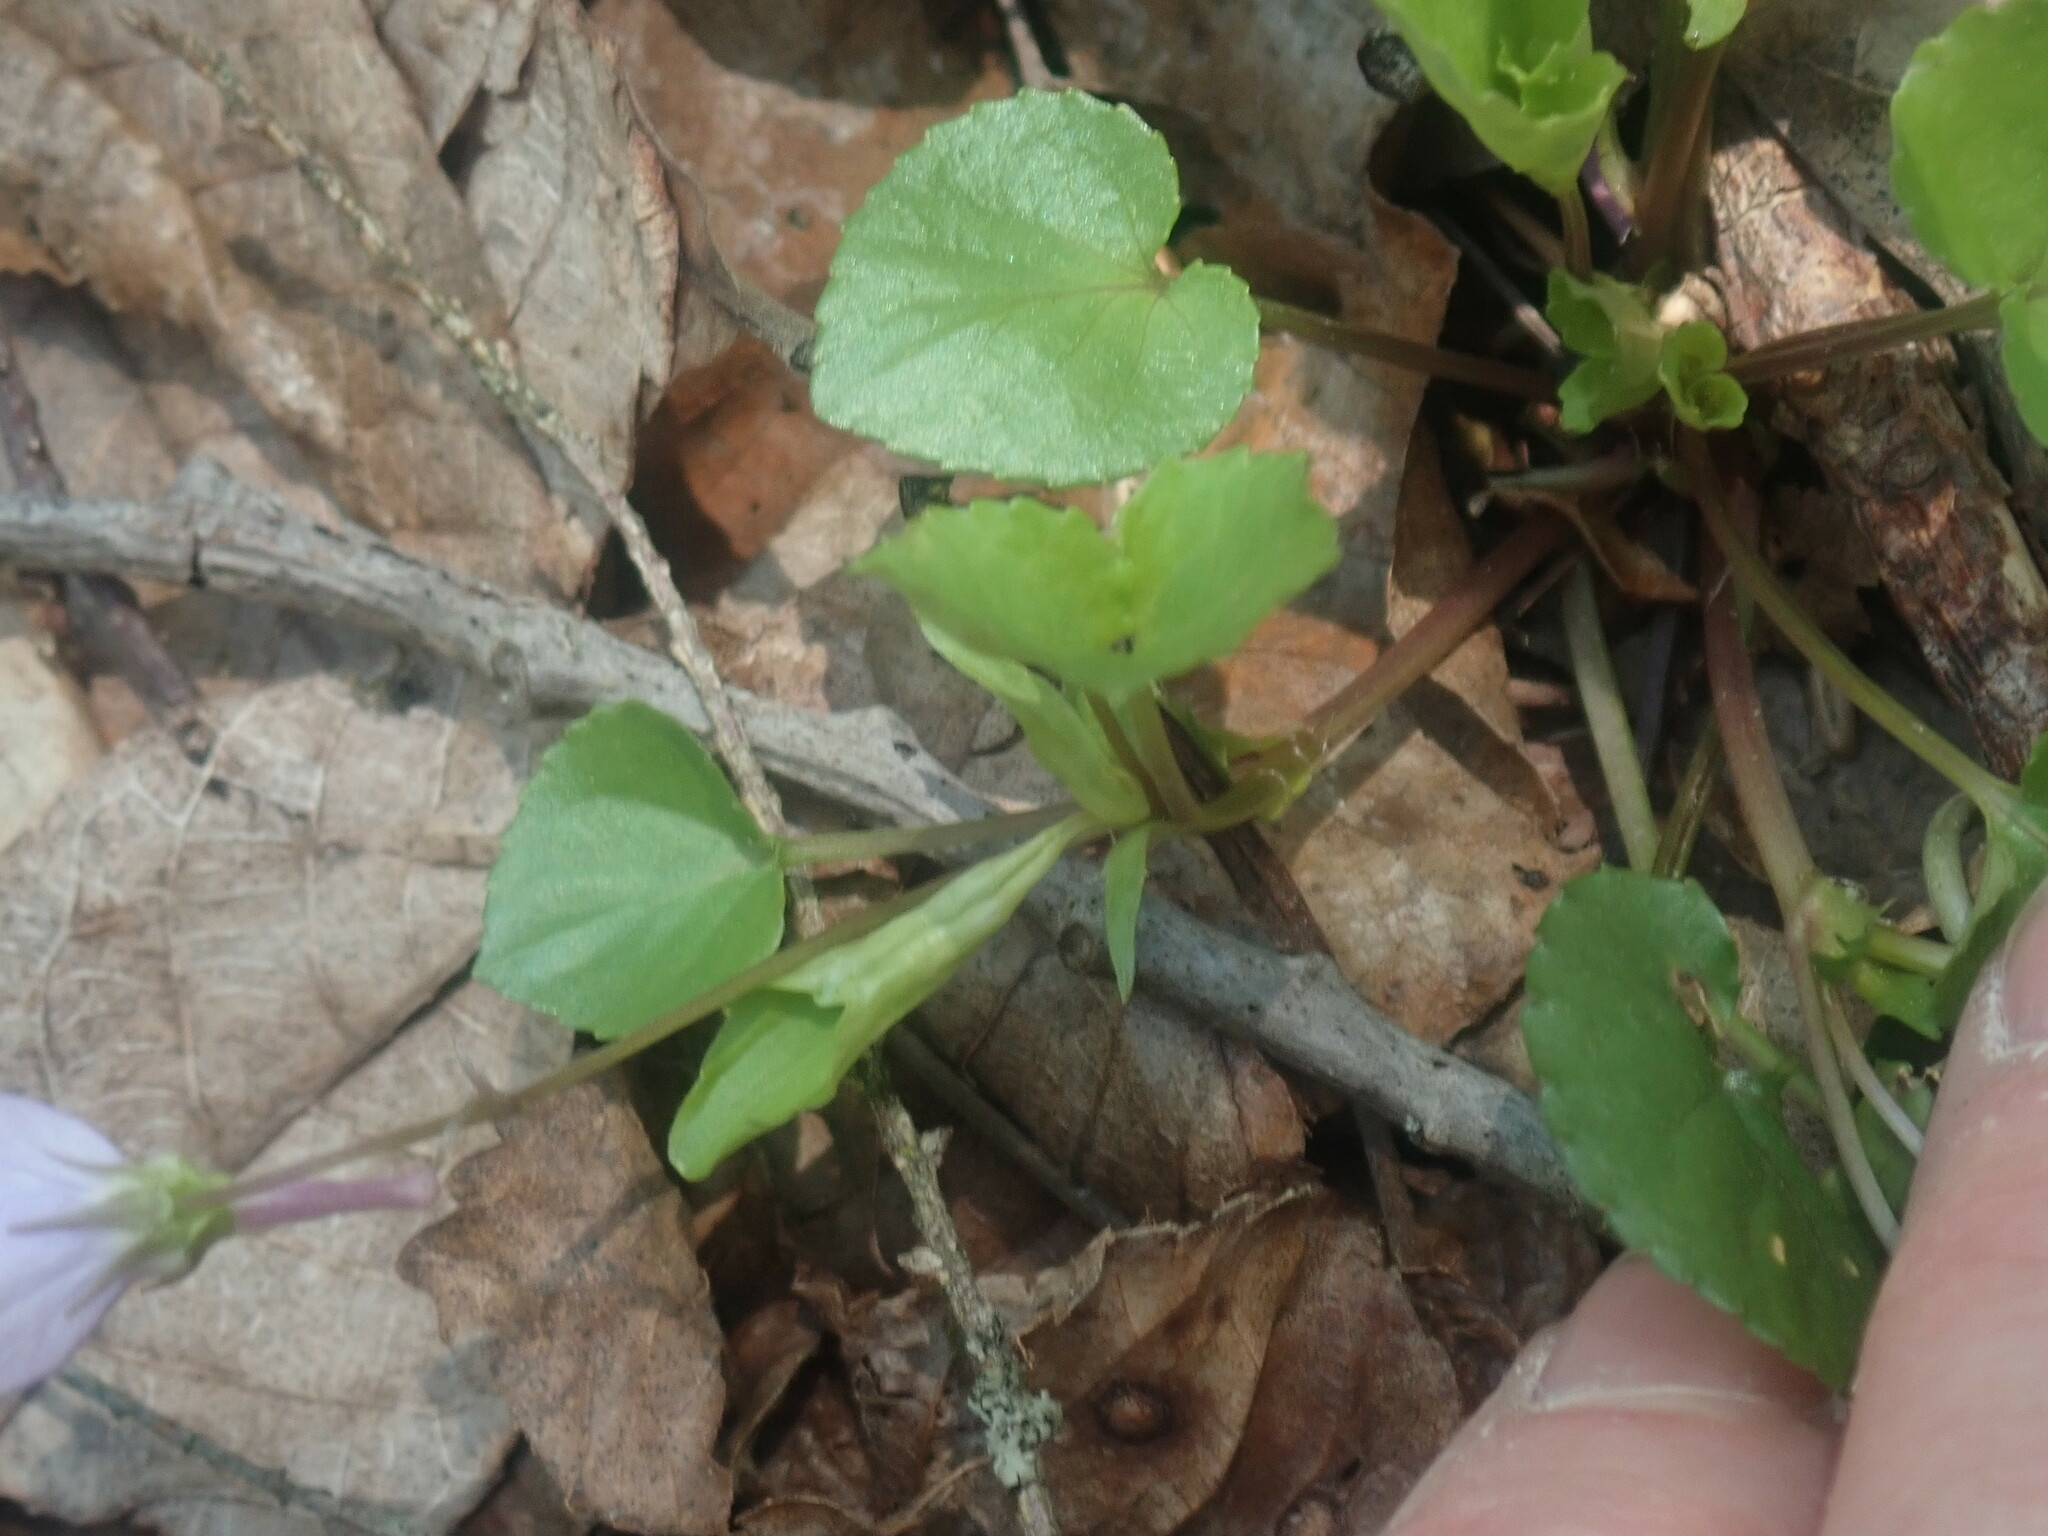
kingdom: Plantae
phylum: Tracheophyta
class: Magnoliopsida
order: Malpighiales
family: Violaceae
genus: Viola
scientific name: Viola rostrata
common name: Long-spur violet
